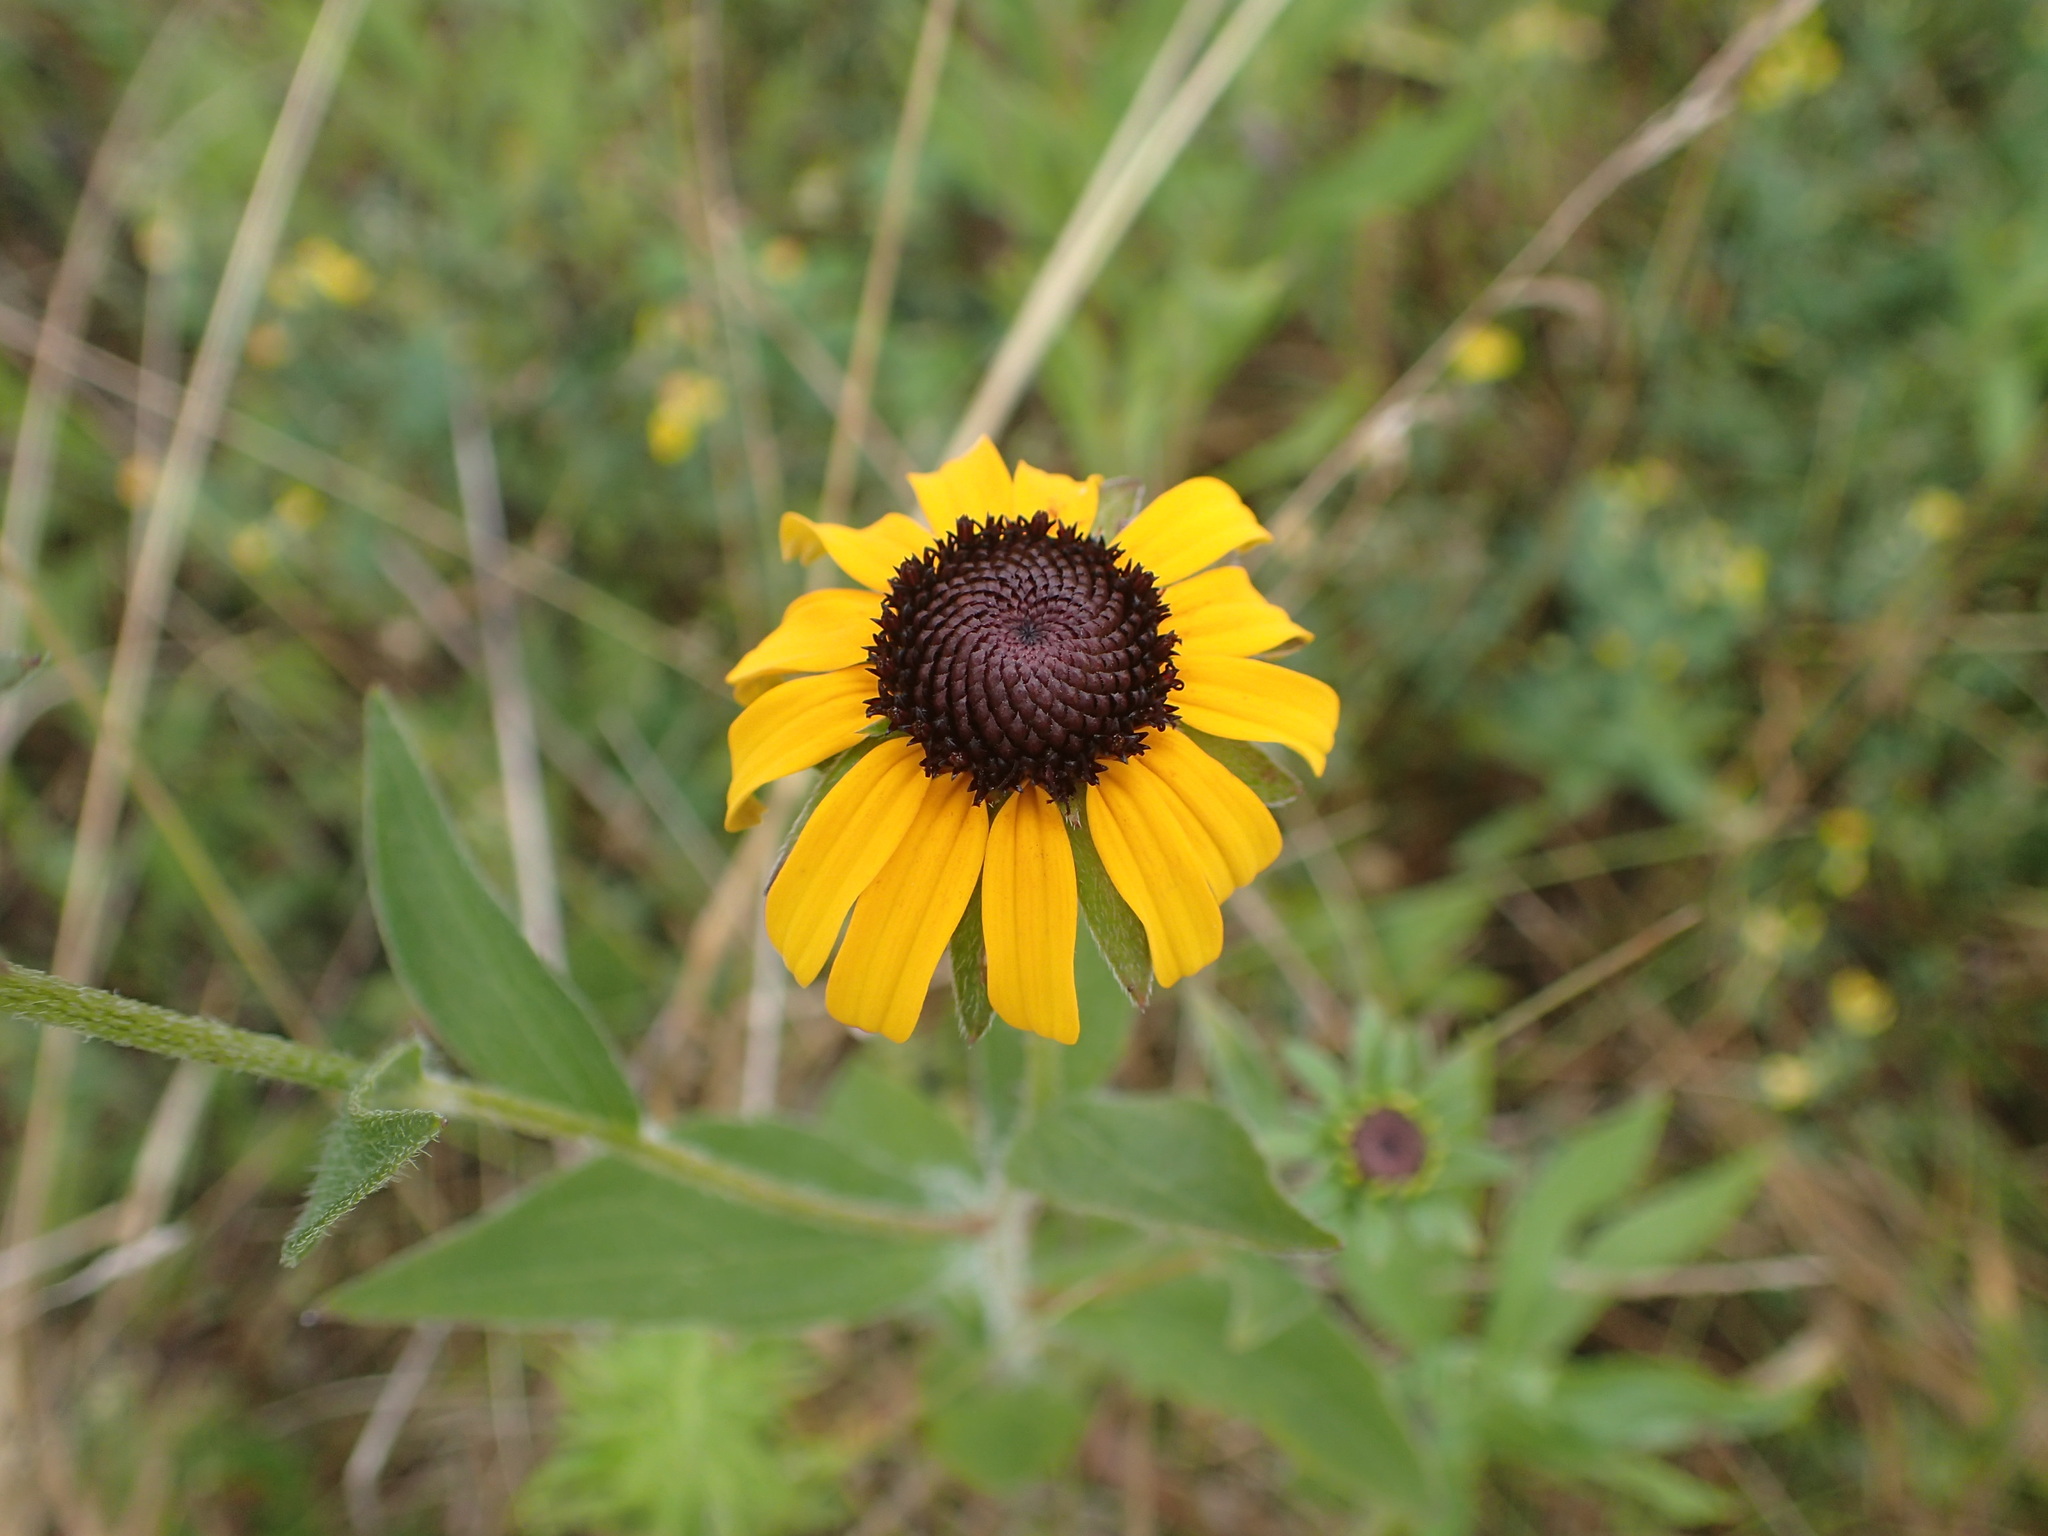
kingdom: Plantae
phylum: Tracheophyta
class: Magnoliopsida
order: Asterales
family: Asteraceae
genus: Rudbeckia
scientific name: Rudbeckia hirta
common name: Black-eyed-susan
